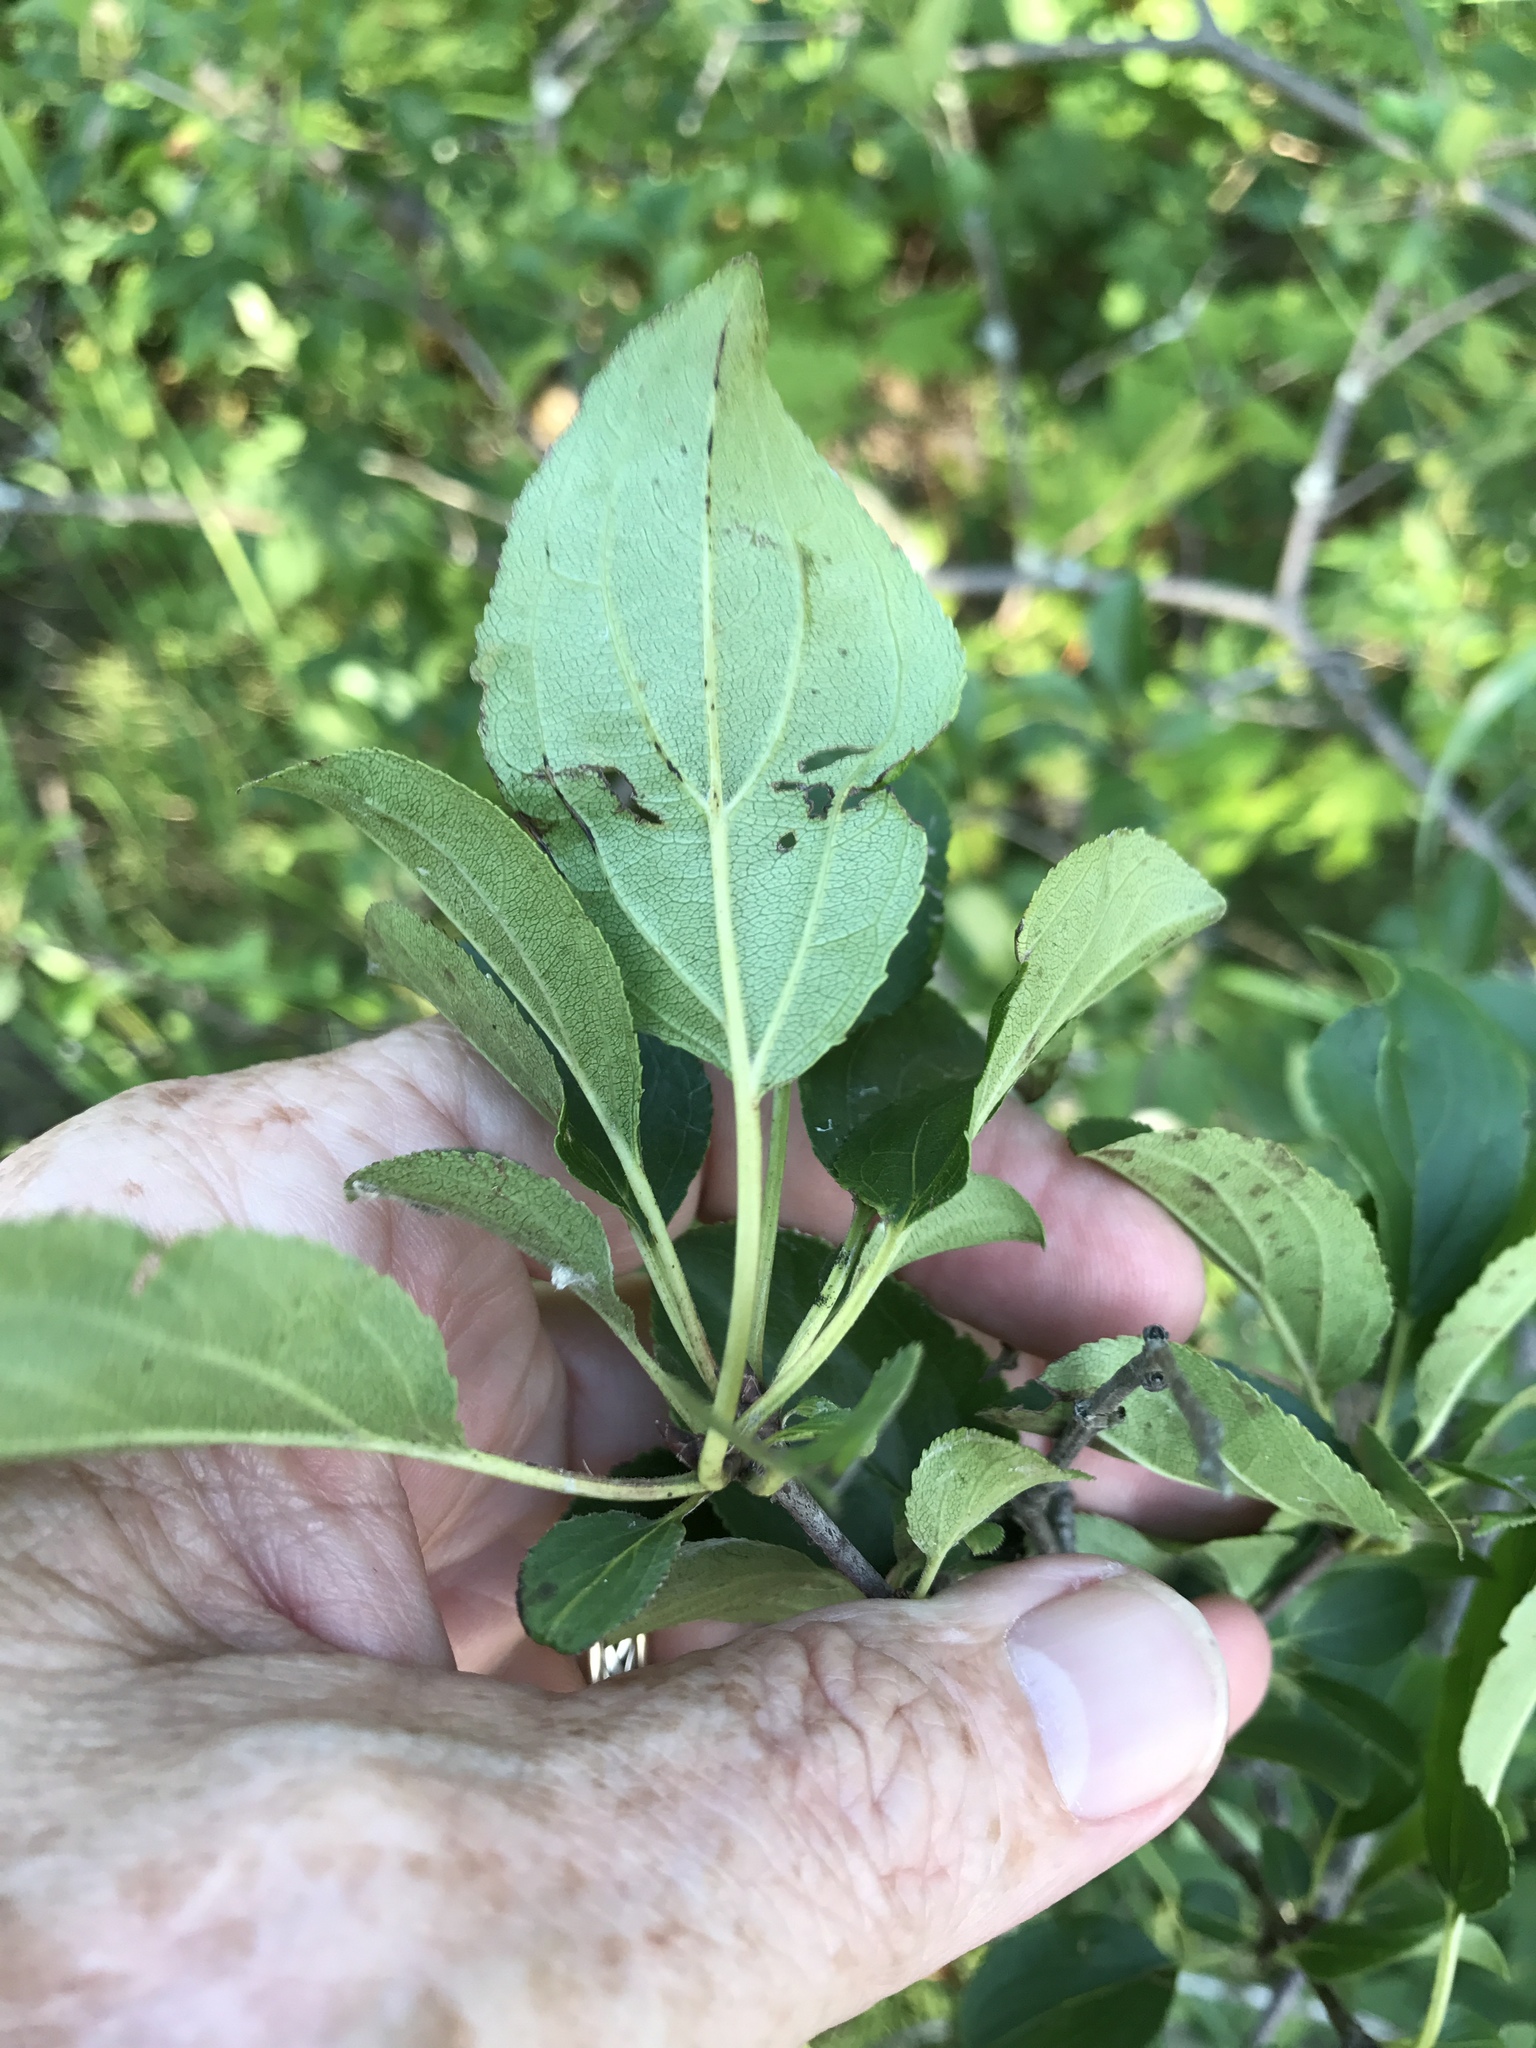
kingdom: Plantae
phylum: Tracheophyta
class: Magnoliopsida
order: Rosales
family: Rhamnaceae
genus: Rhamnus
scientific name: Rhamnus cathartica
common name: Common buckthorn
